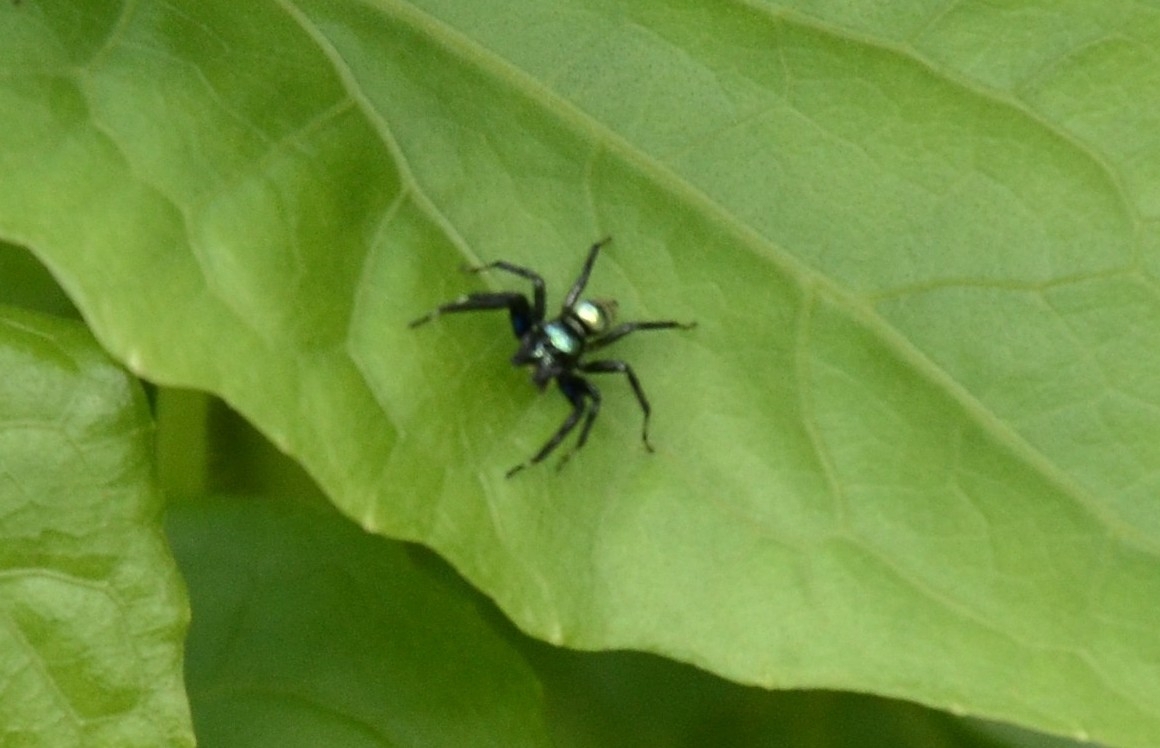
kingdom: Animalia
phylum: Arthropoda
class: Arachnida
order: Araneae
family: Salticidae
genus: Phintella
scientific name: Phintella vittata
